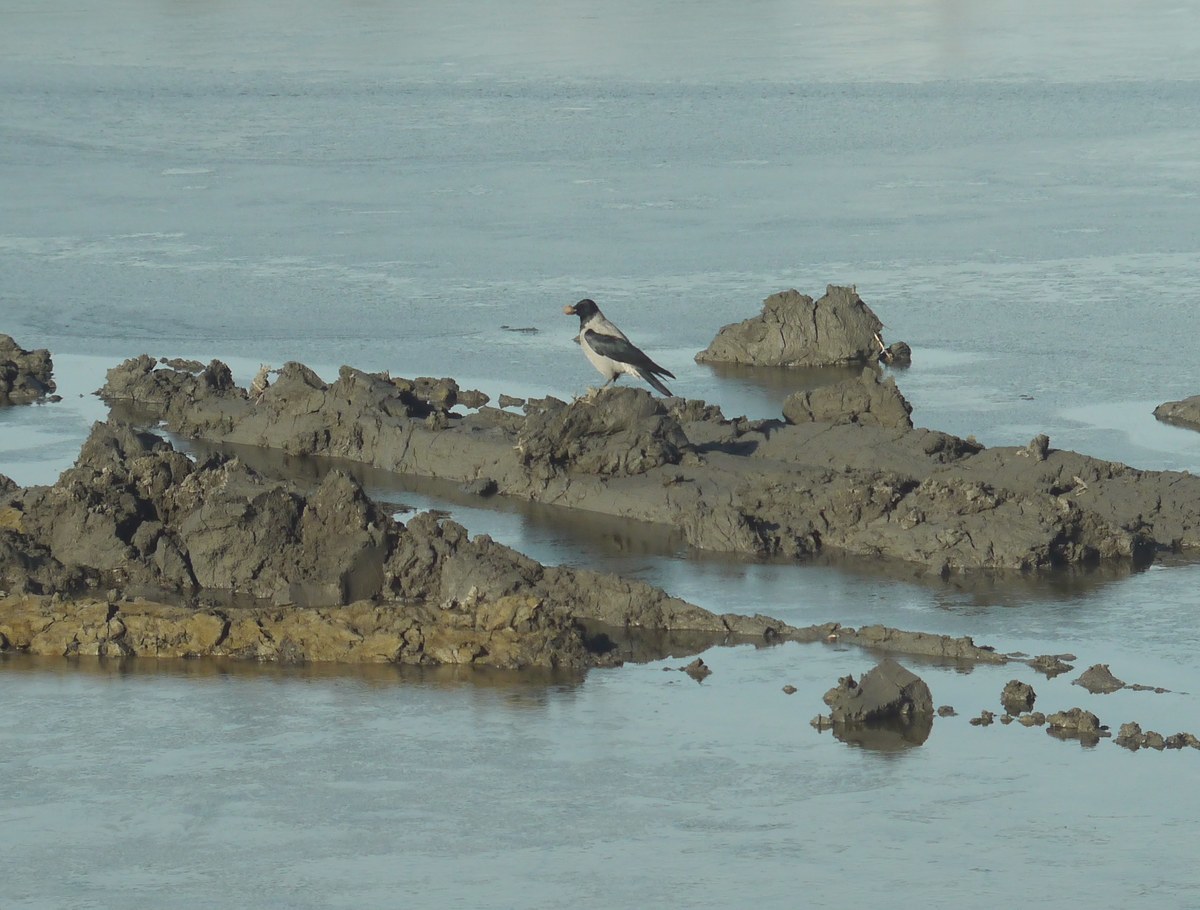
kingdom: Animalia
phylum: Chordata
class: Aves
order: Passeriformes
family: Corvidae
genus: Corvus
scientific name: Corvus cornix
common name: Hooded crow
